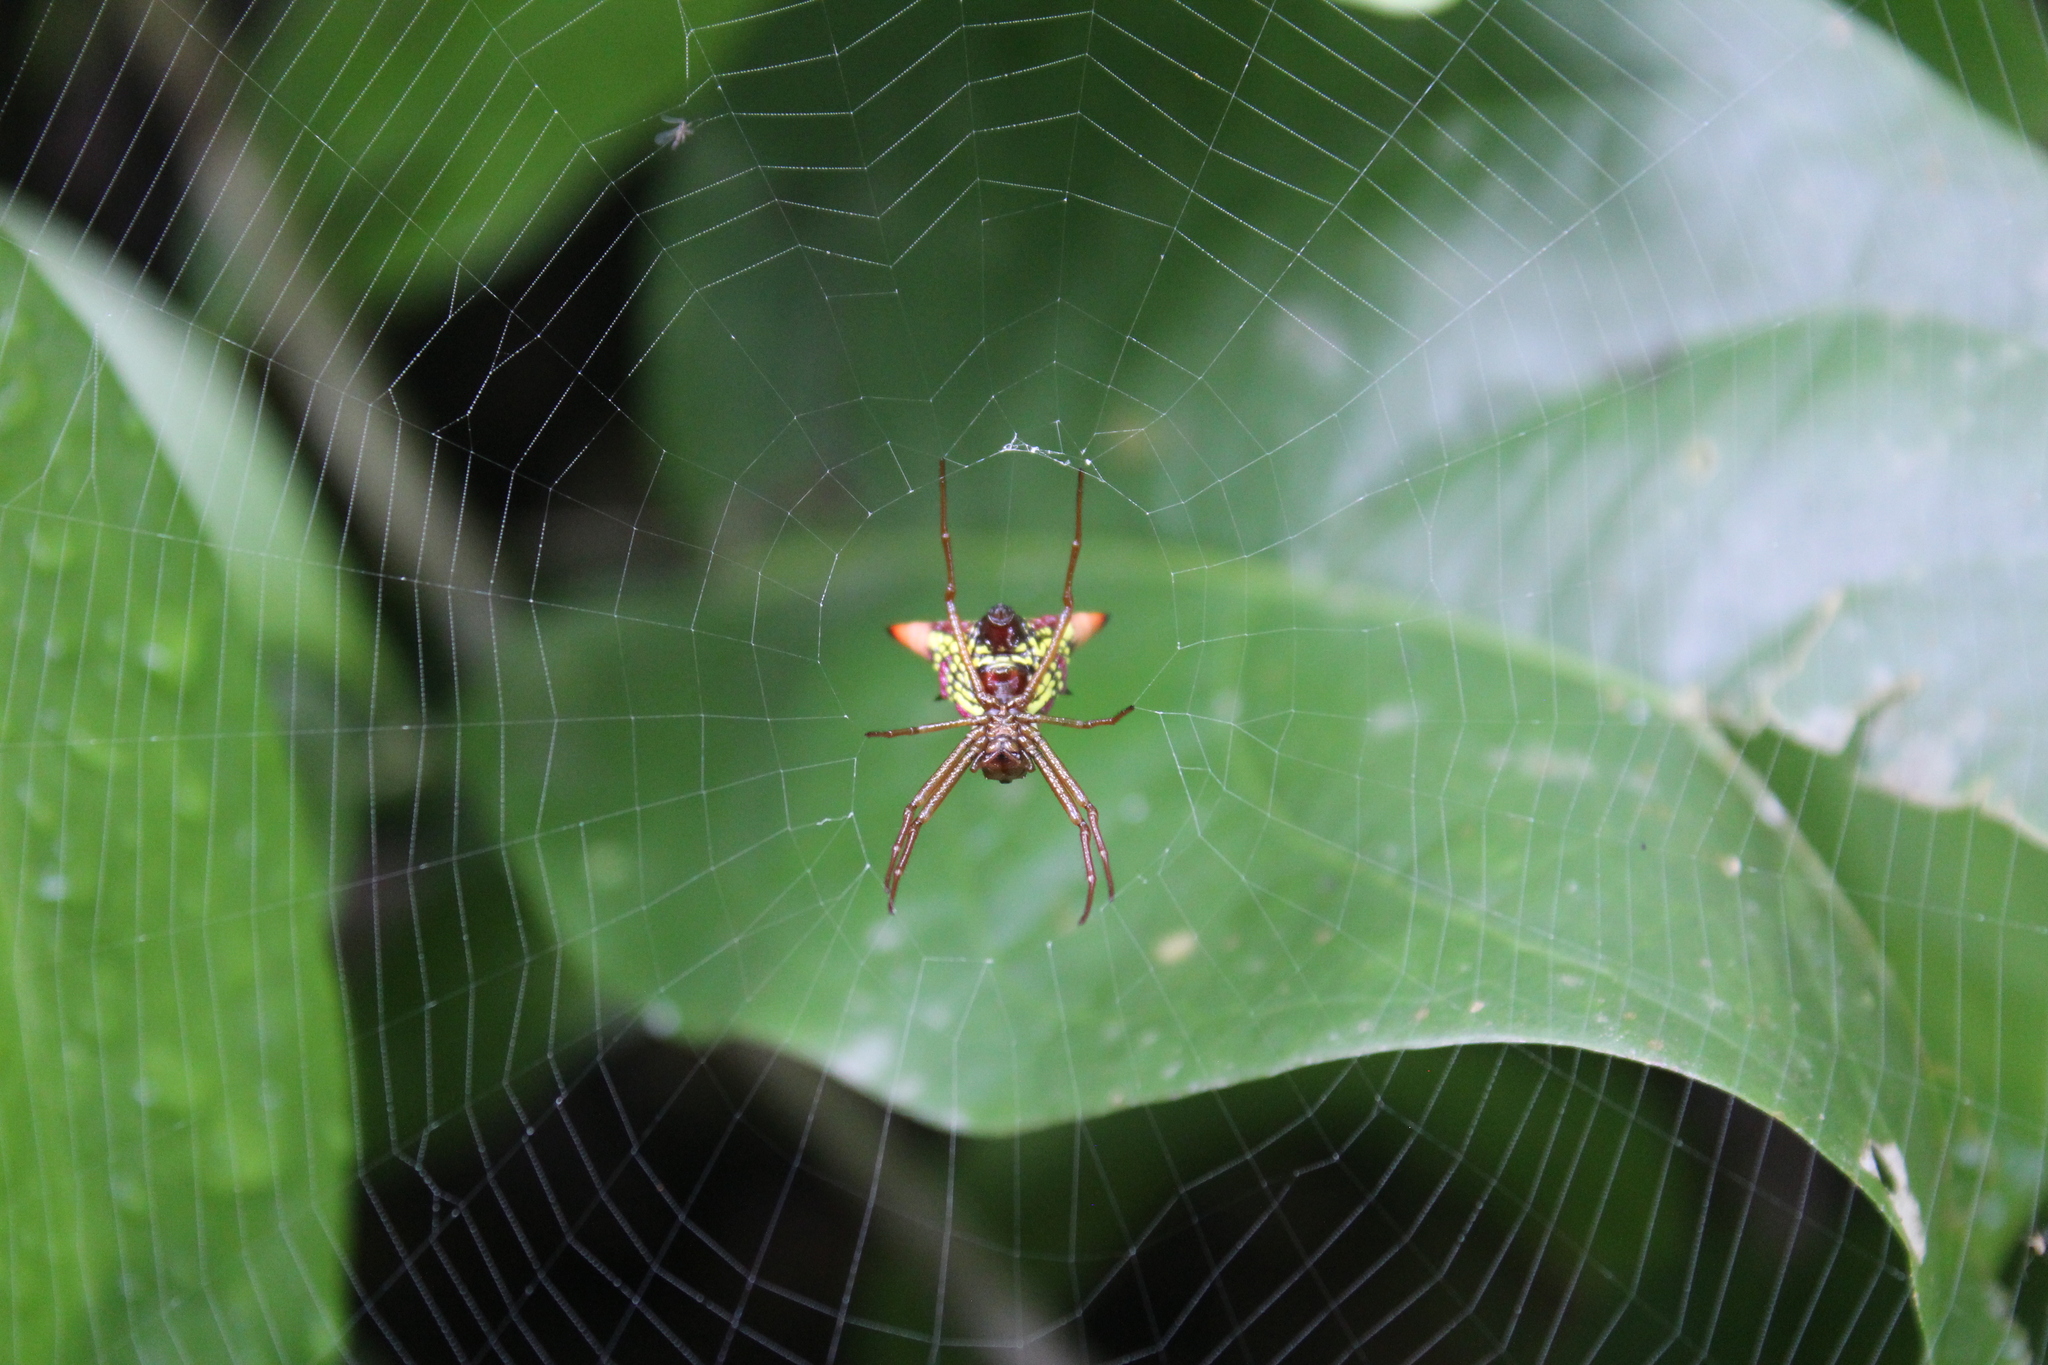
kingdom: Animalia
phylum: Arthropoda
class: Arachnida
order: Araneae
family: Araneidae
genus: Micrathena
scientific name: Micrathena sagittata
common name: Orb weavers
